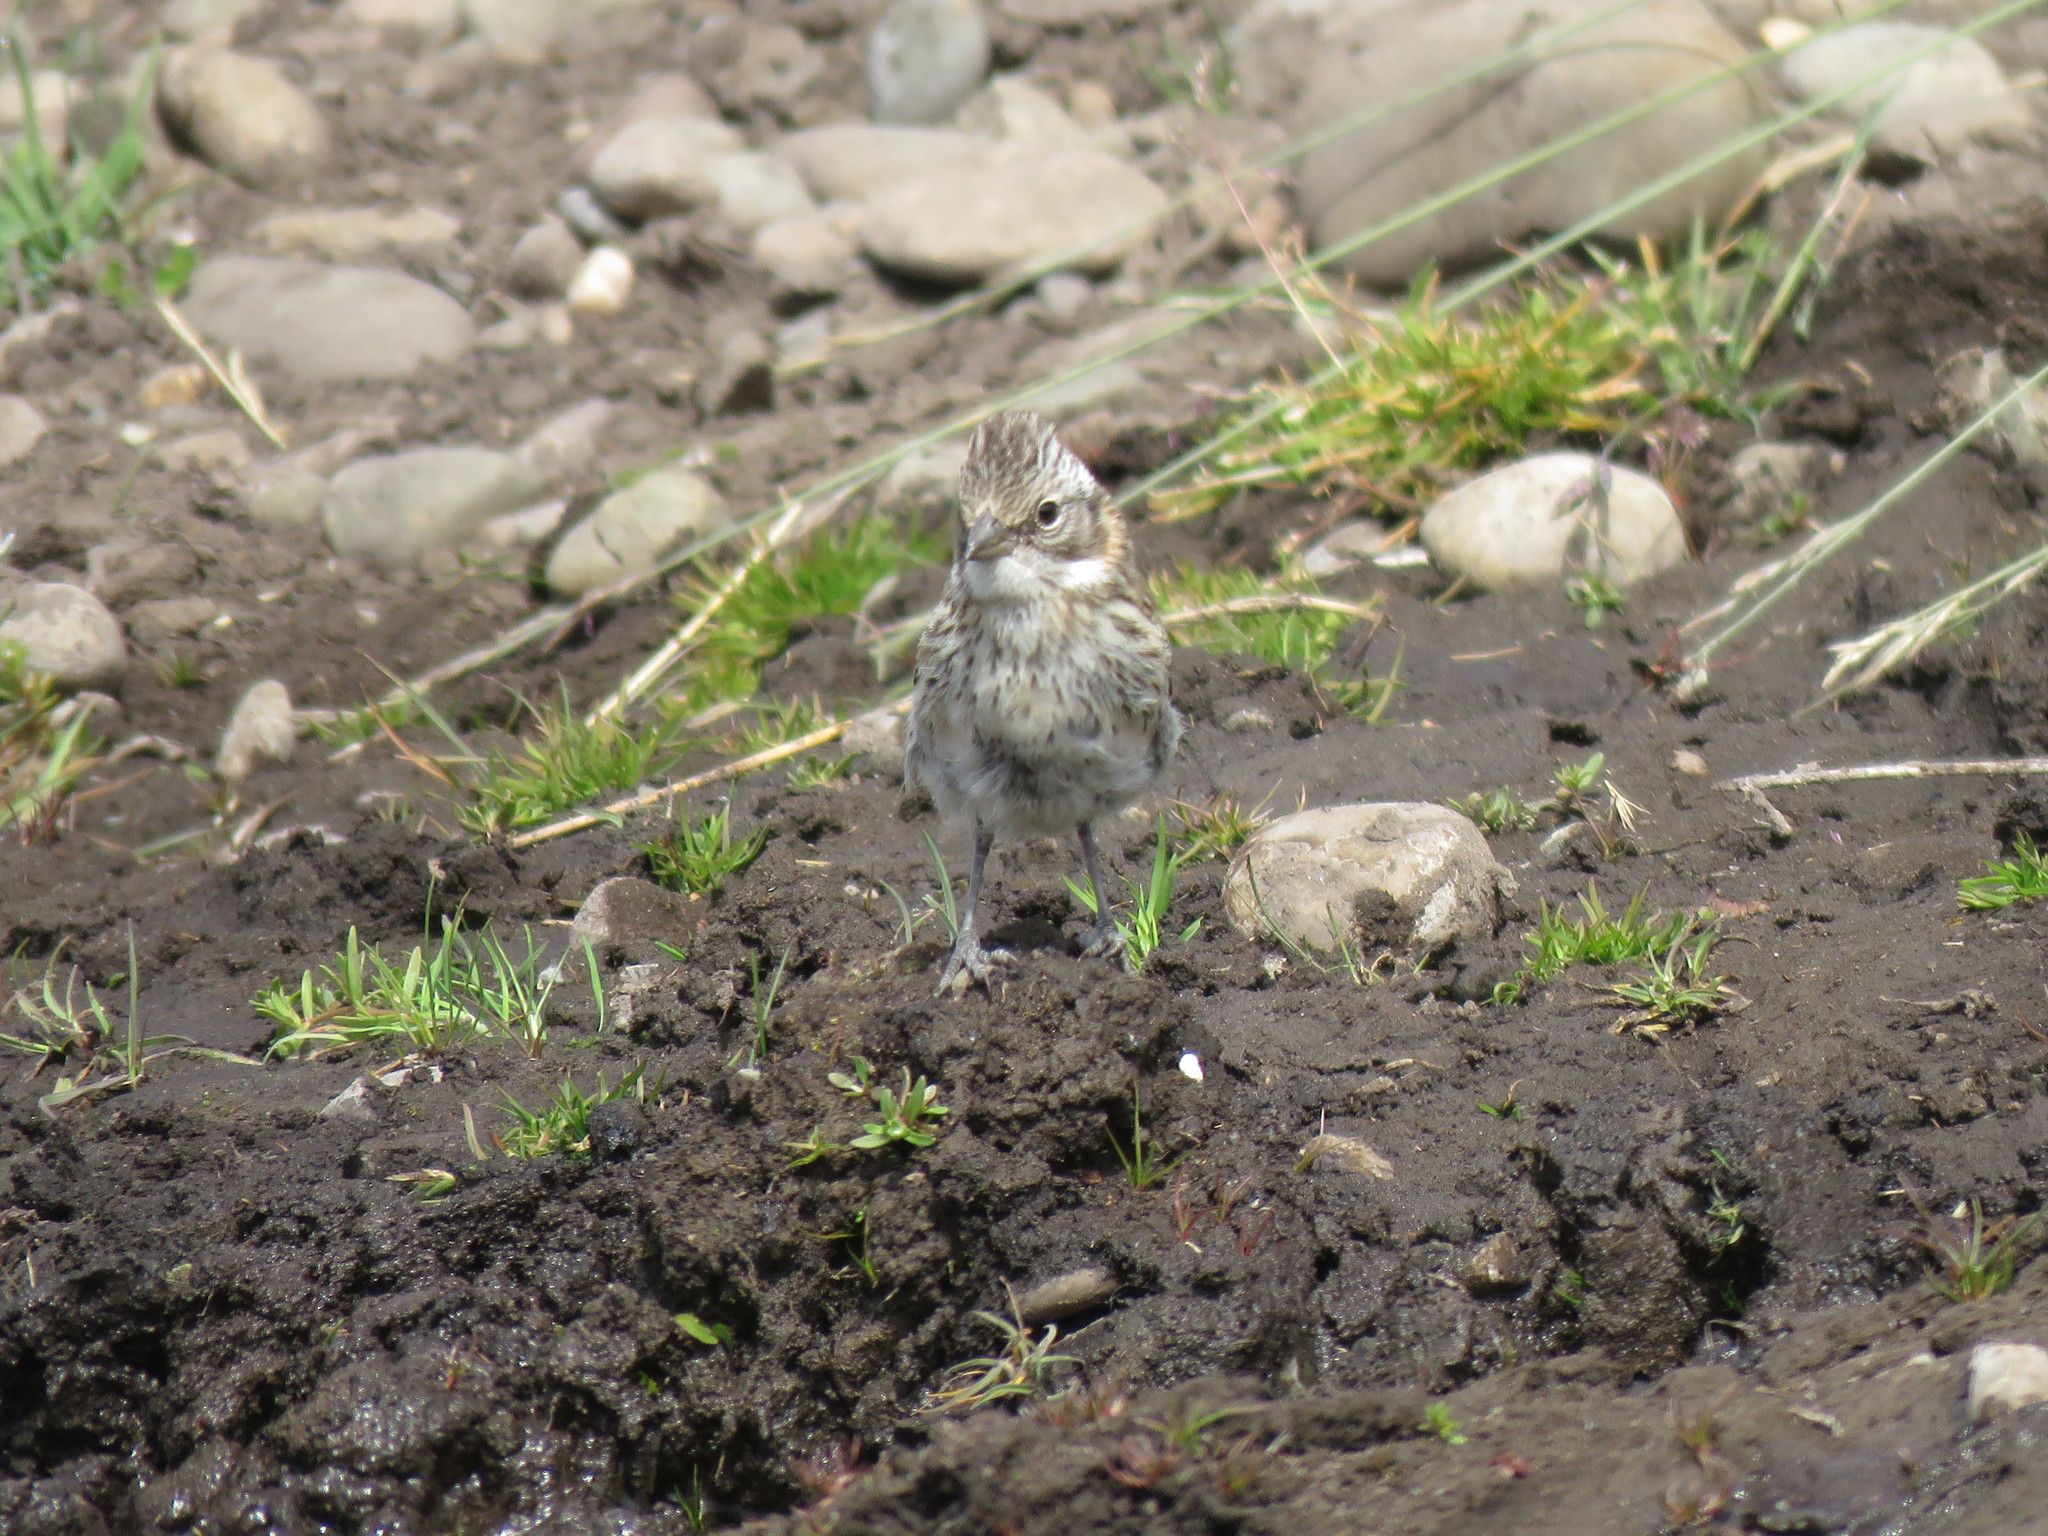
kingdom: Animalia
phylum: Chordata
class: Aves
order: Passeriformes
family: Passerellidae
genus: Zonotrichia
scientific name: Zonotrichia capensis
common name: Rufous-collared sparrow
